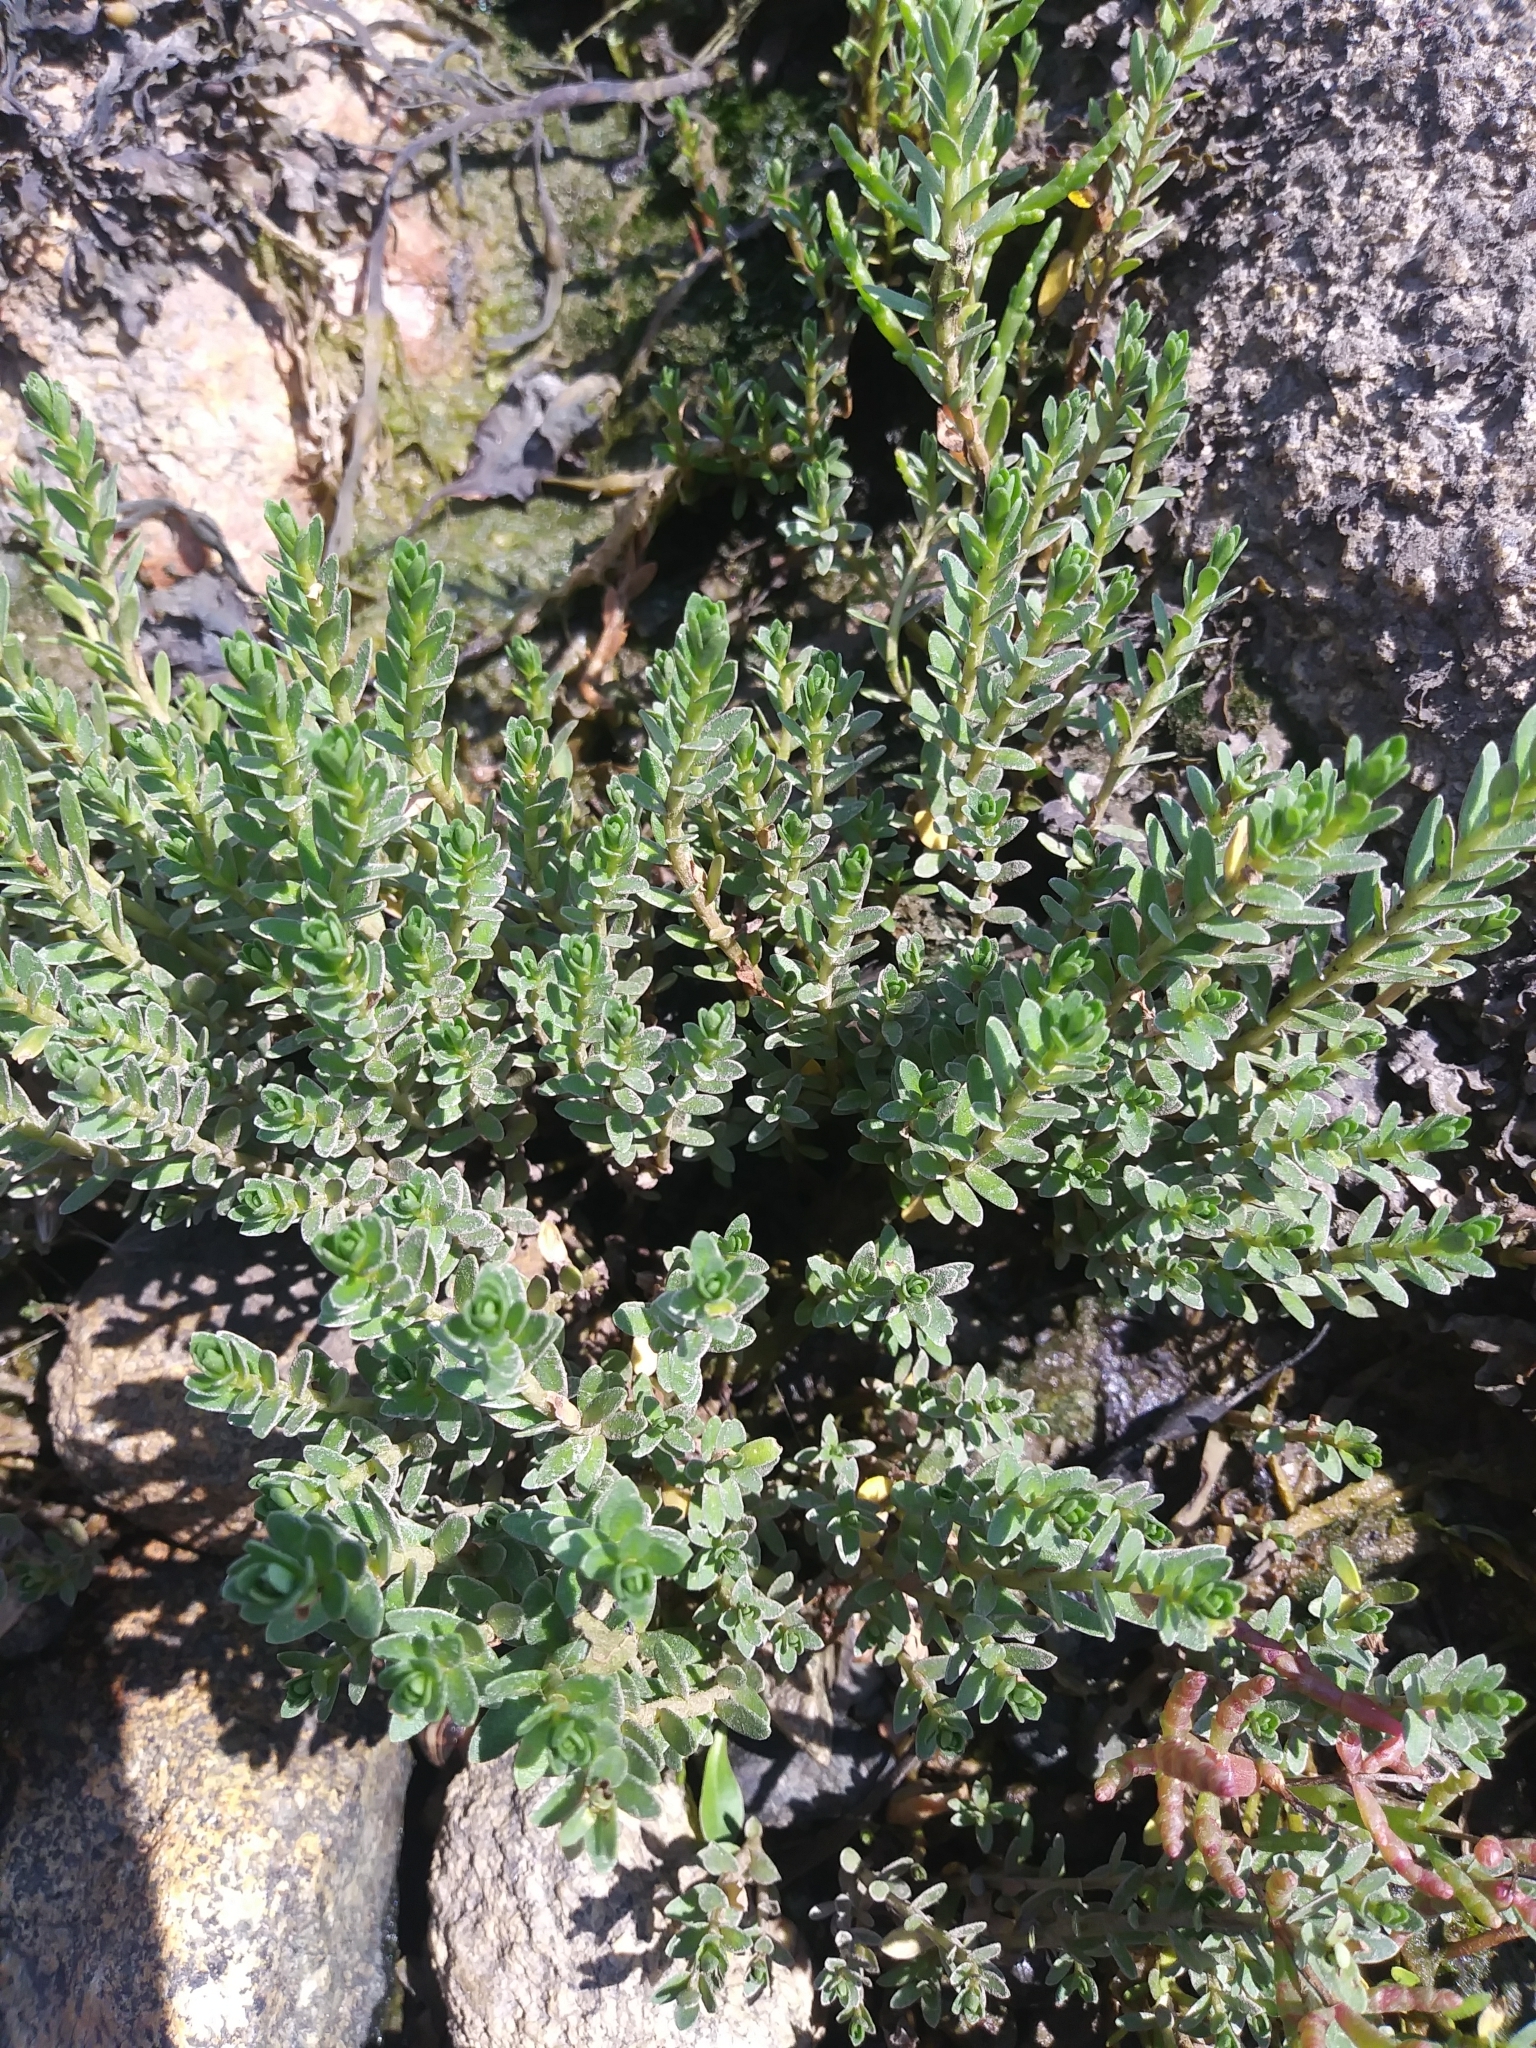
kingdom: Plantae
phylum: Tracheophyta
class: Magnoliopsida
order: Ericales
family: Primulaceae
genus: Lysimachia
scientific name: Lysimachia maritima
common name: Sea milkwort
